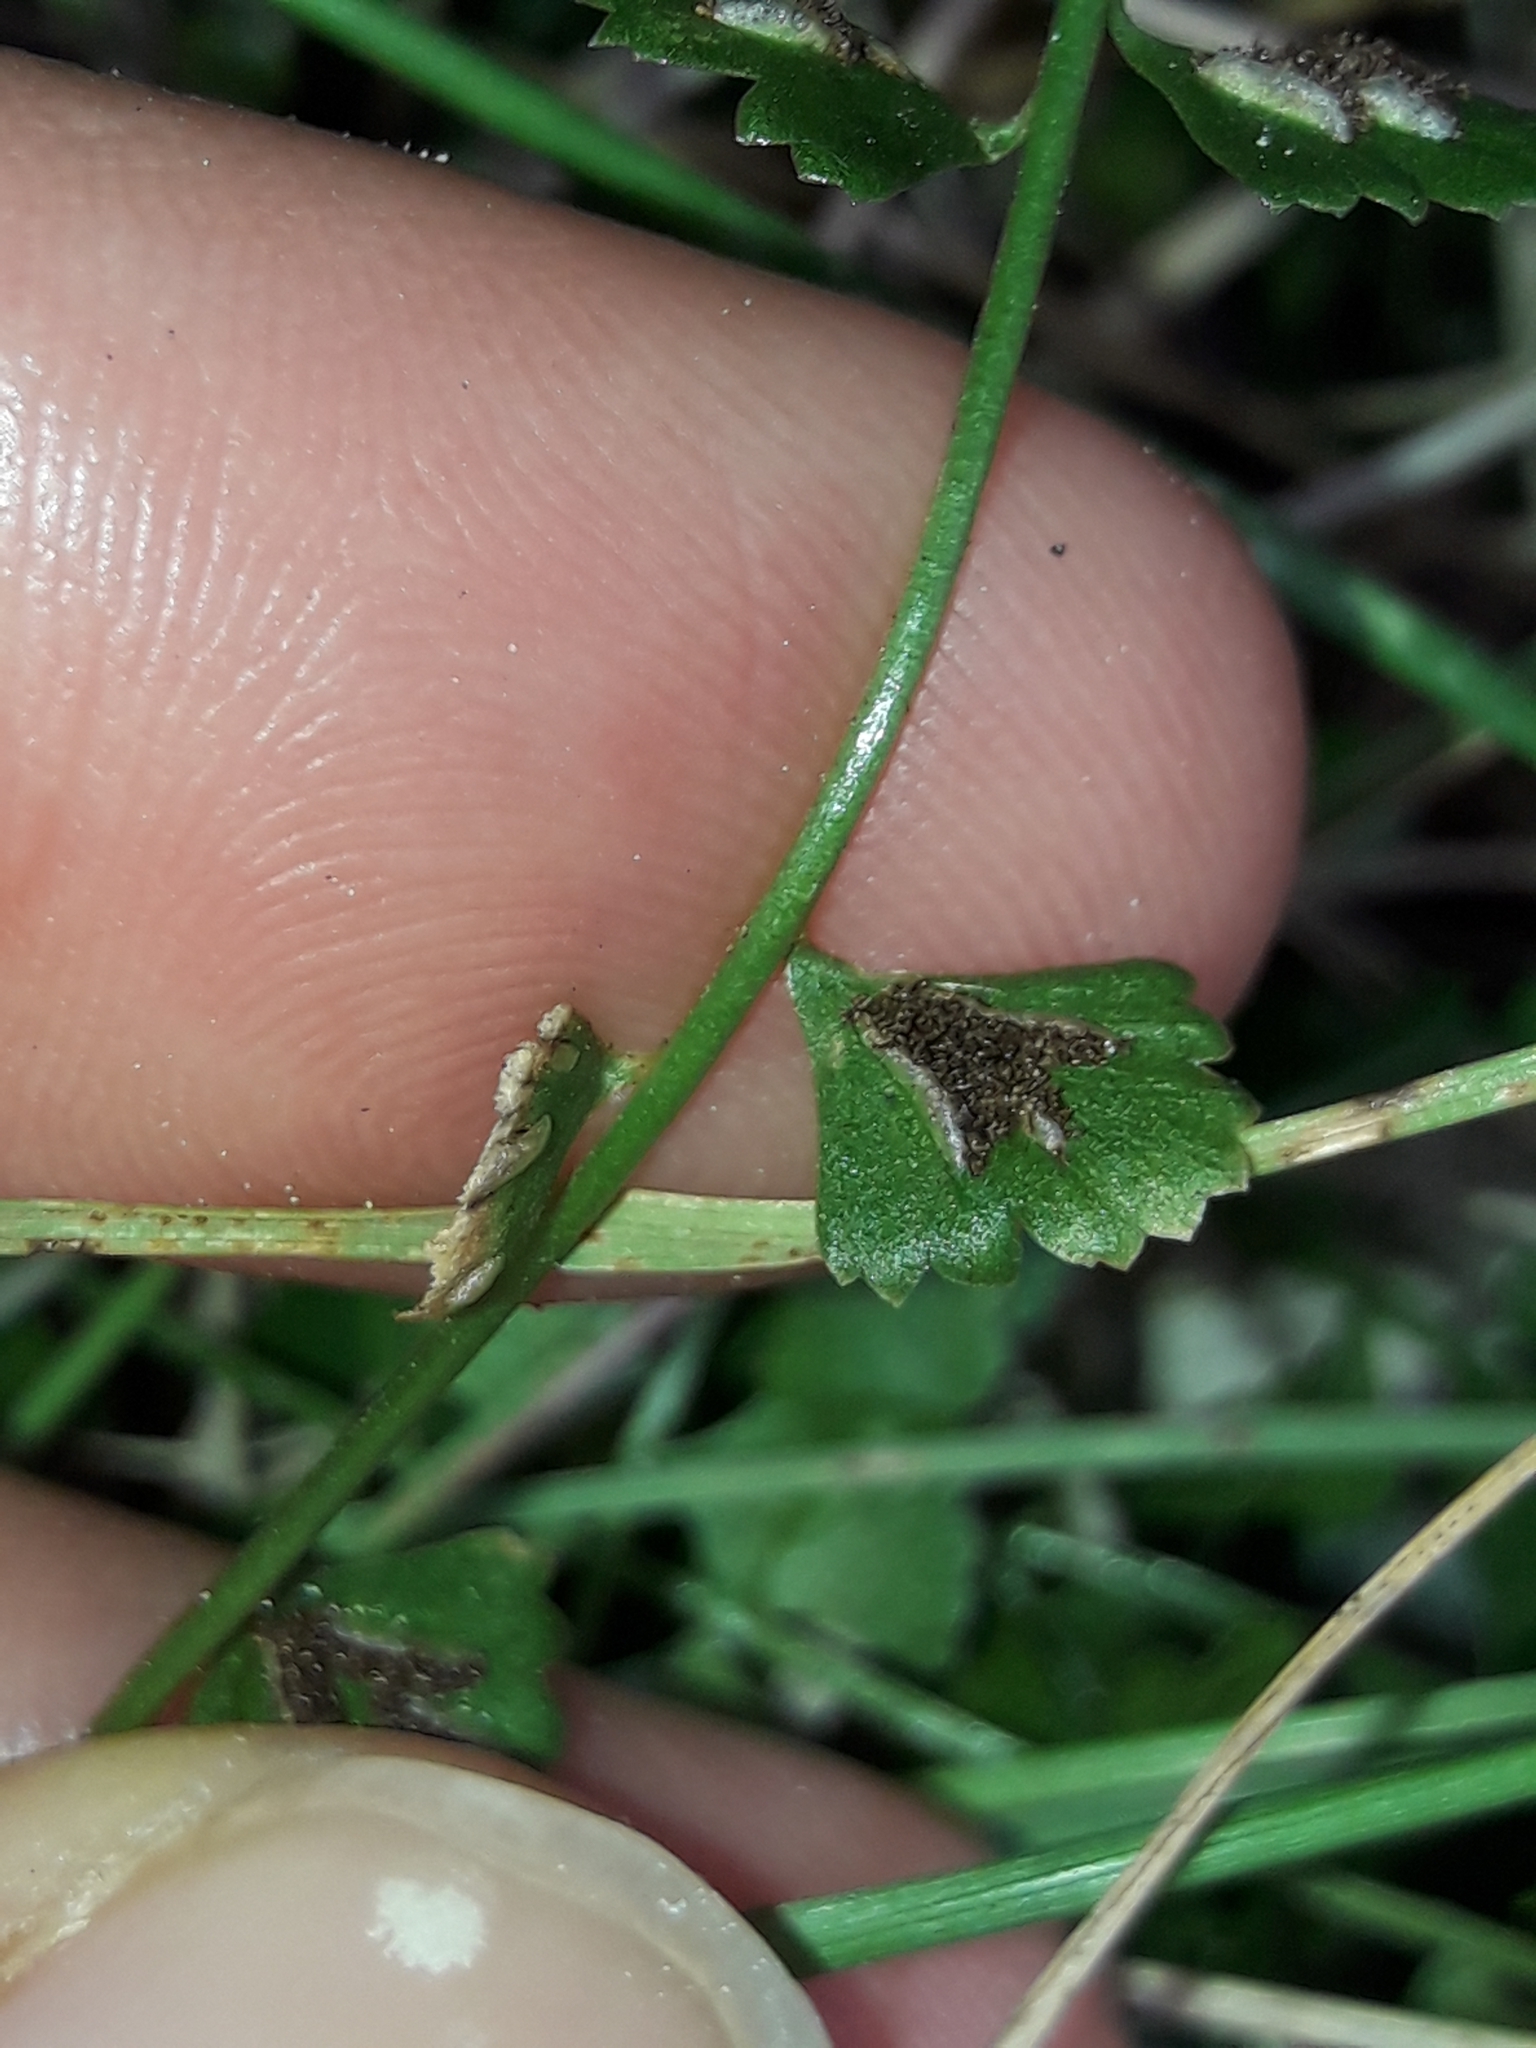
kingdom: Plantae
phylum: Tracheophyta
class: Polypodiopsida
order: Polypodiales
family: Aspleniaceae
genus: Asplenium
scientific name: Asplenium flabellifolium
